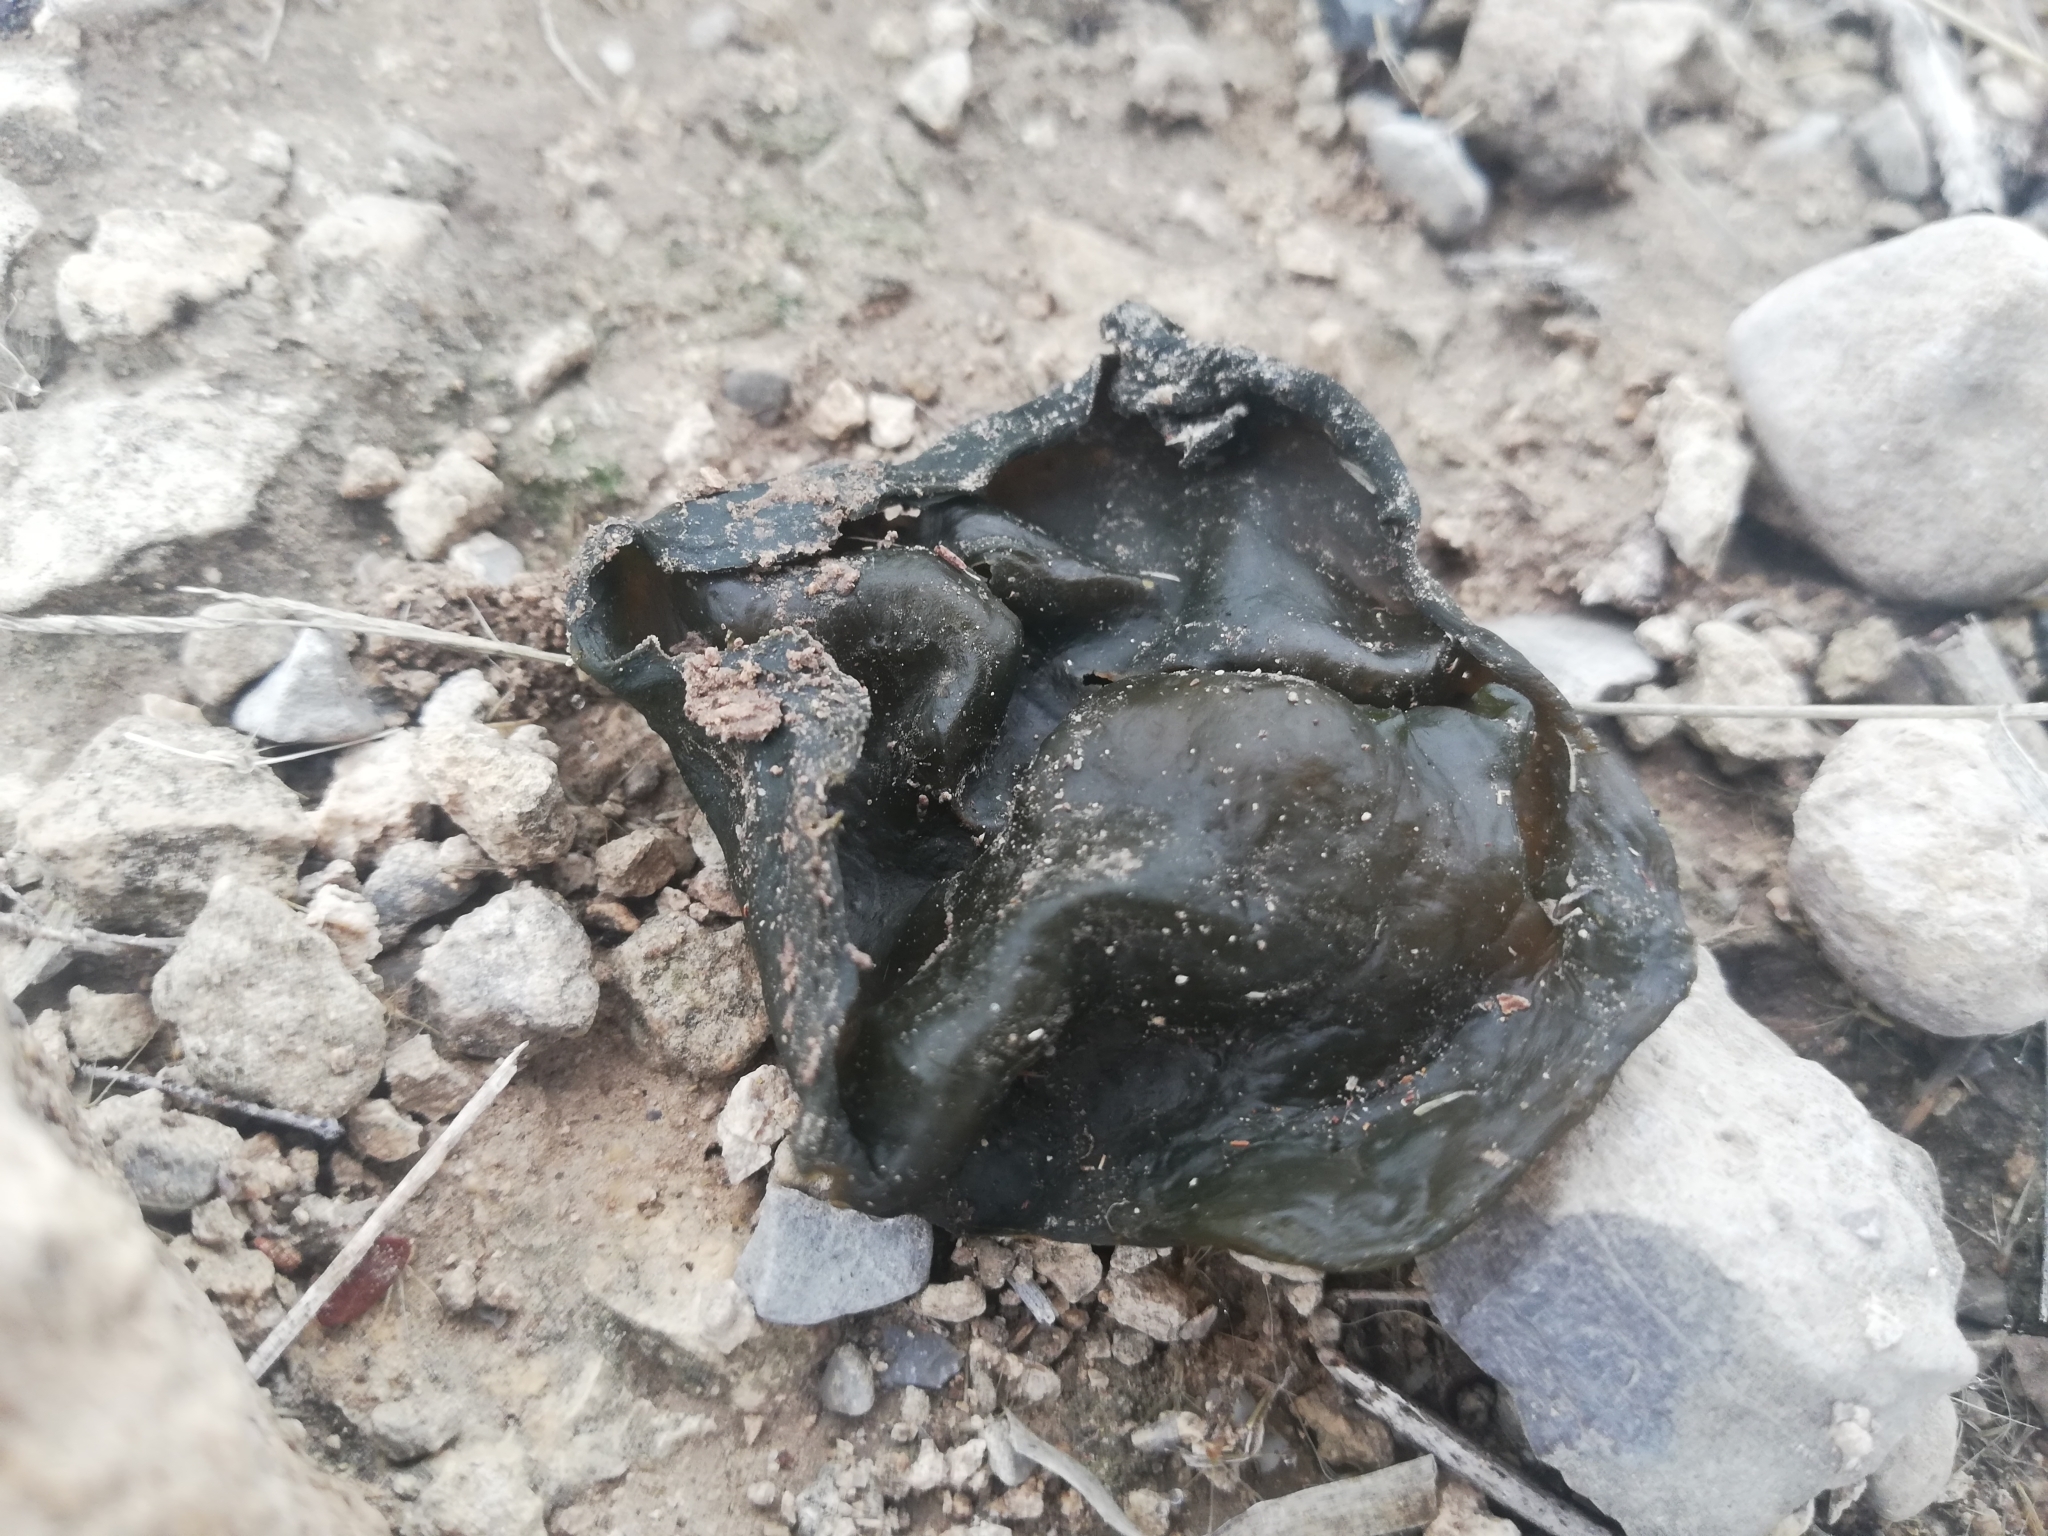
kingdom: Bacteria
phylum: Cyanobacteria
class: Cyanobacteriia
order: Cyanobacteriales
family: Nostocaceae
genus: Nostoc
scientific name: Nostoc commune
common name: Star jelly
